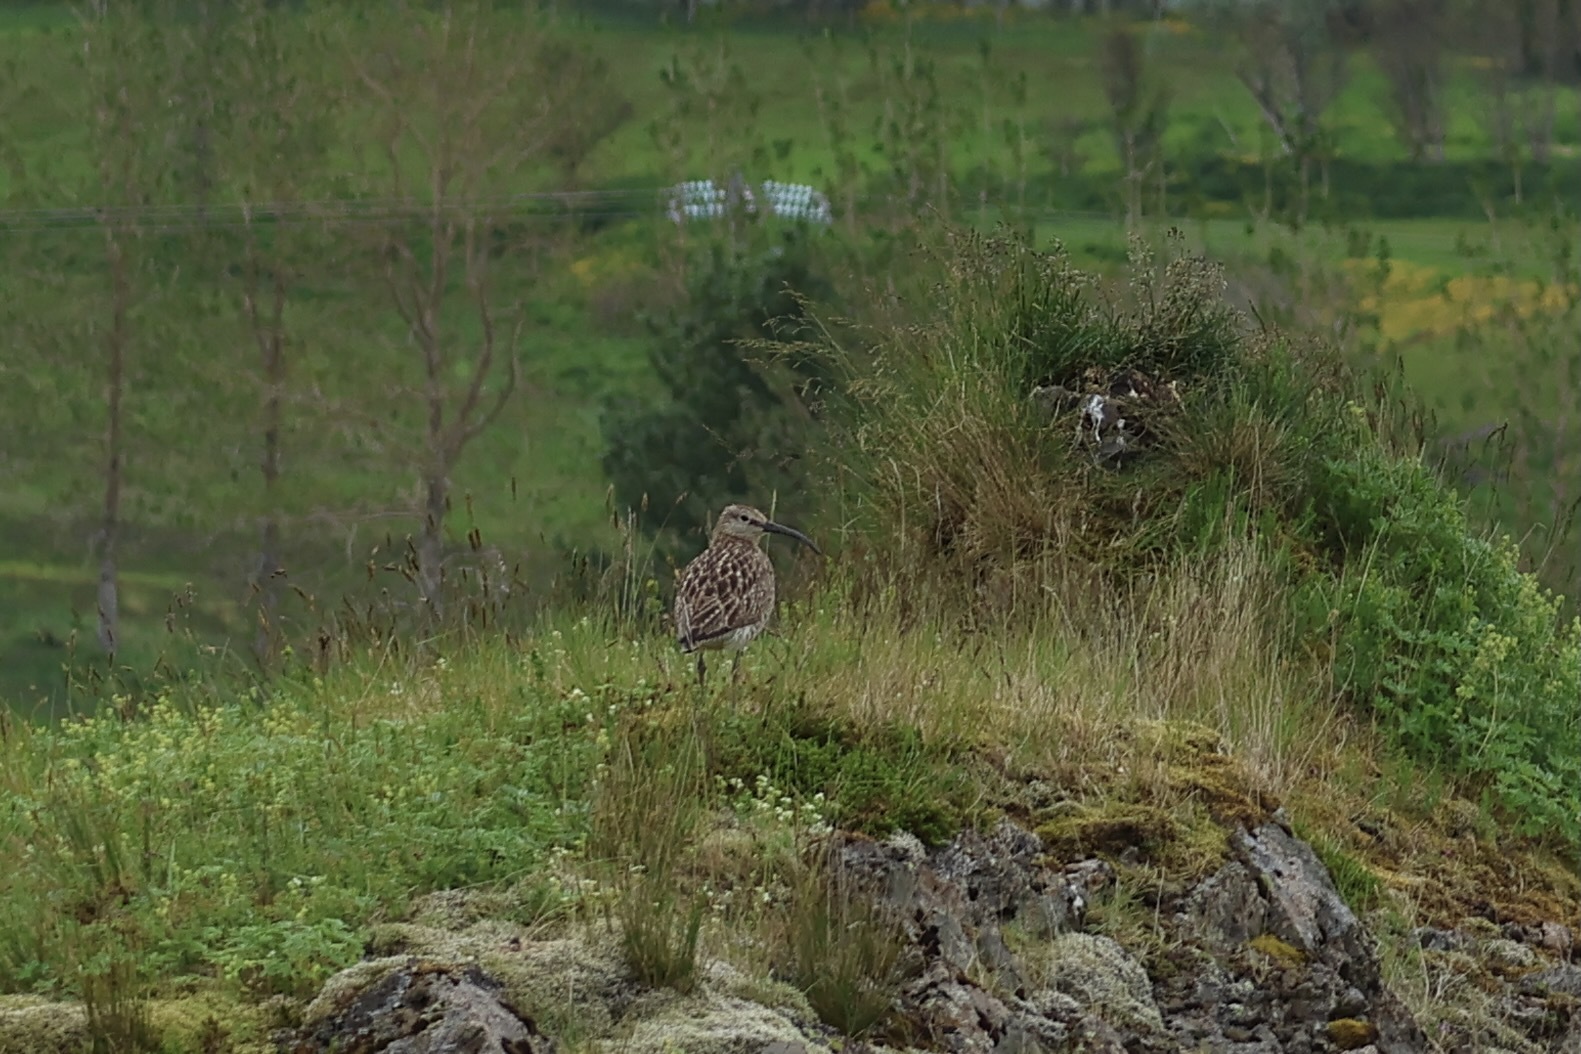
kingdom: Animalia
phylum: Chordata
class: Aves
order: Charadriiformes
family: Scolopacidae
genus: Numenius
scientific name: Numenius phaeopus
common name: Whimbrel
